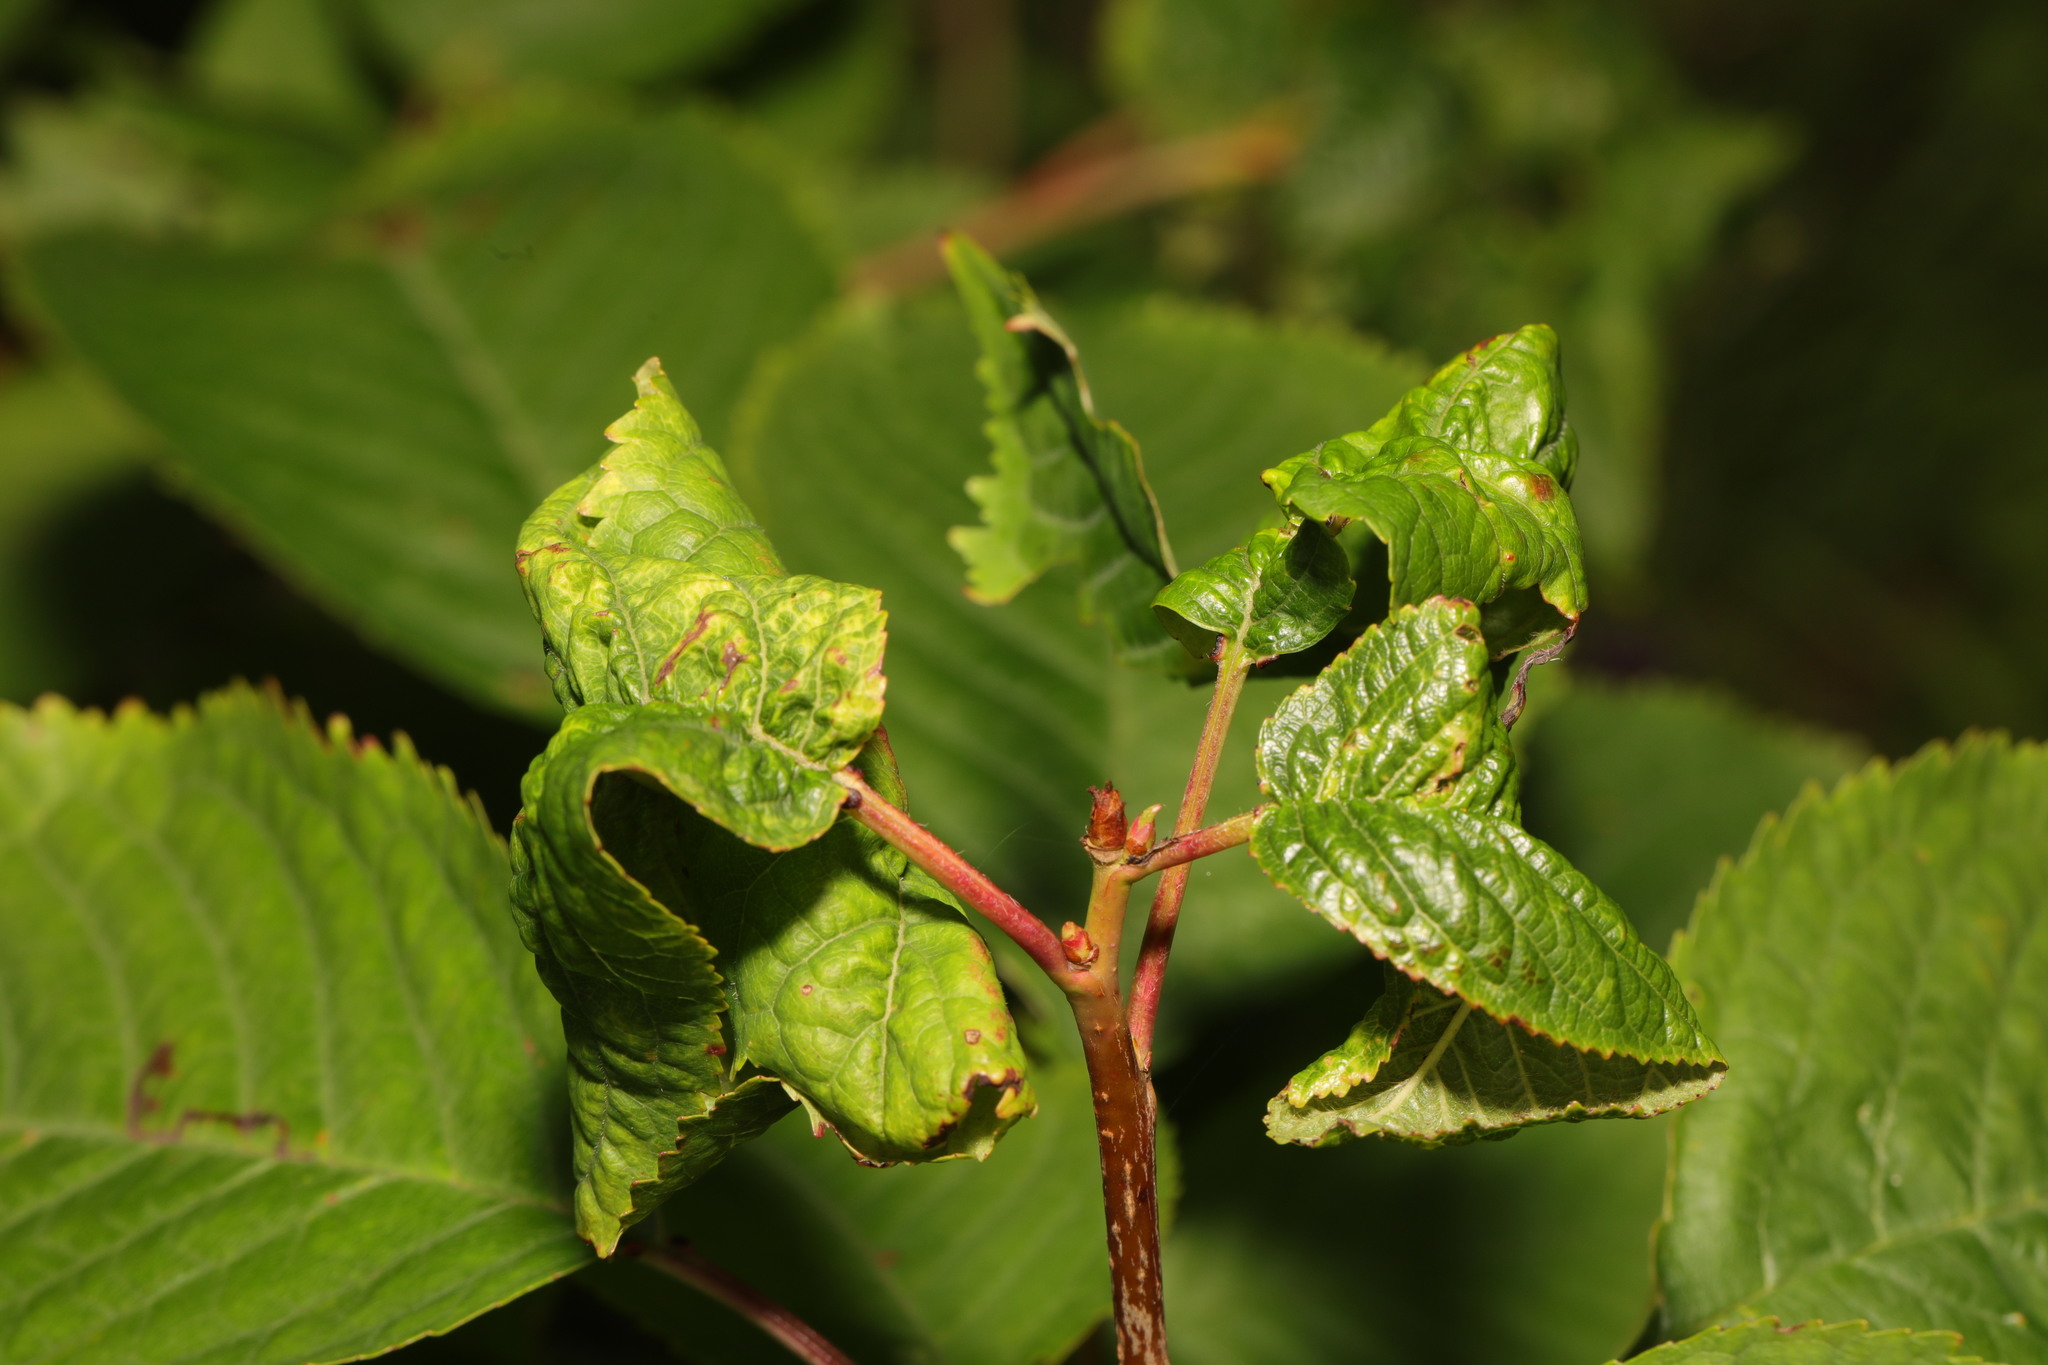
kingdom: Animalia
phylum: Arthropoda
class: Insecta
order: Hemiptera
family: Aphididae
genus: Myzus
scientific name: Myzus cerasi
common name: Black cherry aphid
